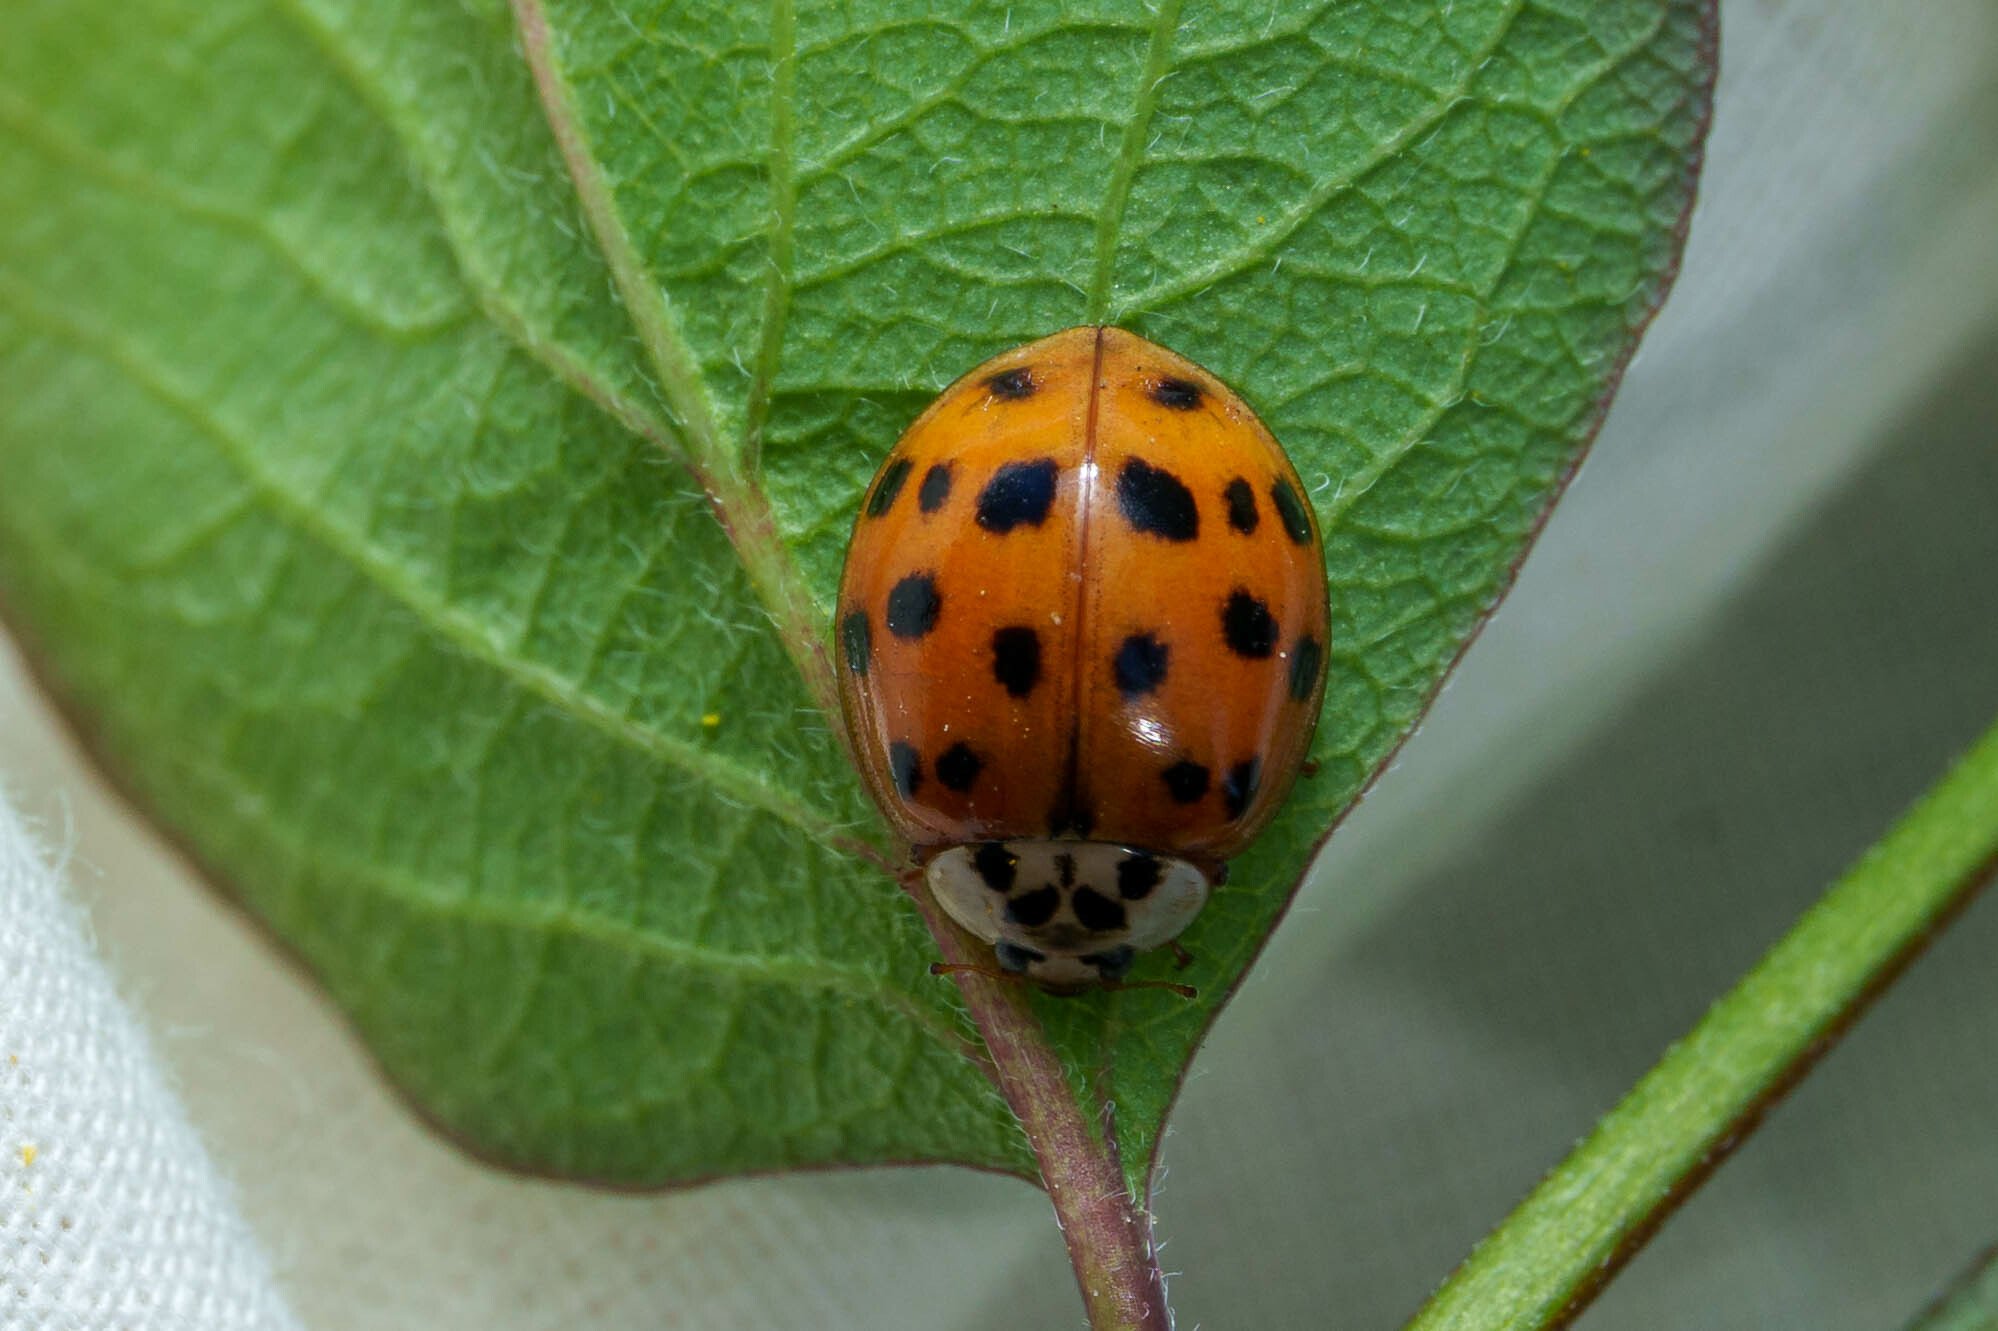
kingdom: Animalia
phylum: Arthropoda
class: Insecta
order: Coleoptera
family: Coccinellidae
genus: Harmonia
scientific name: Harmonia axyridis
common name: Harlequin ladybird
